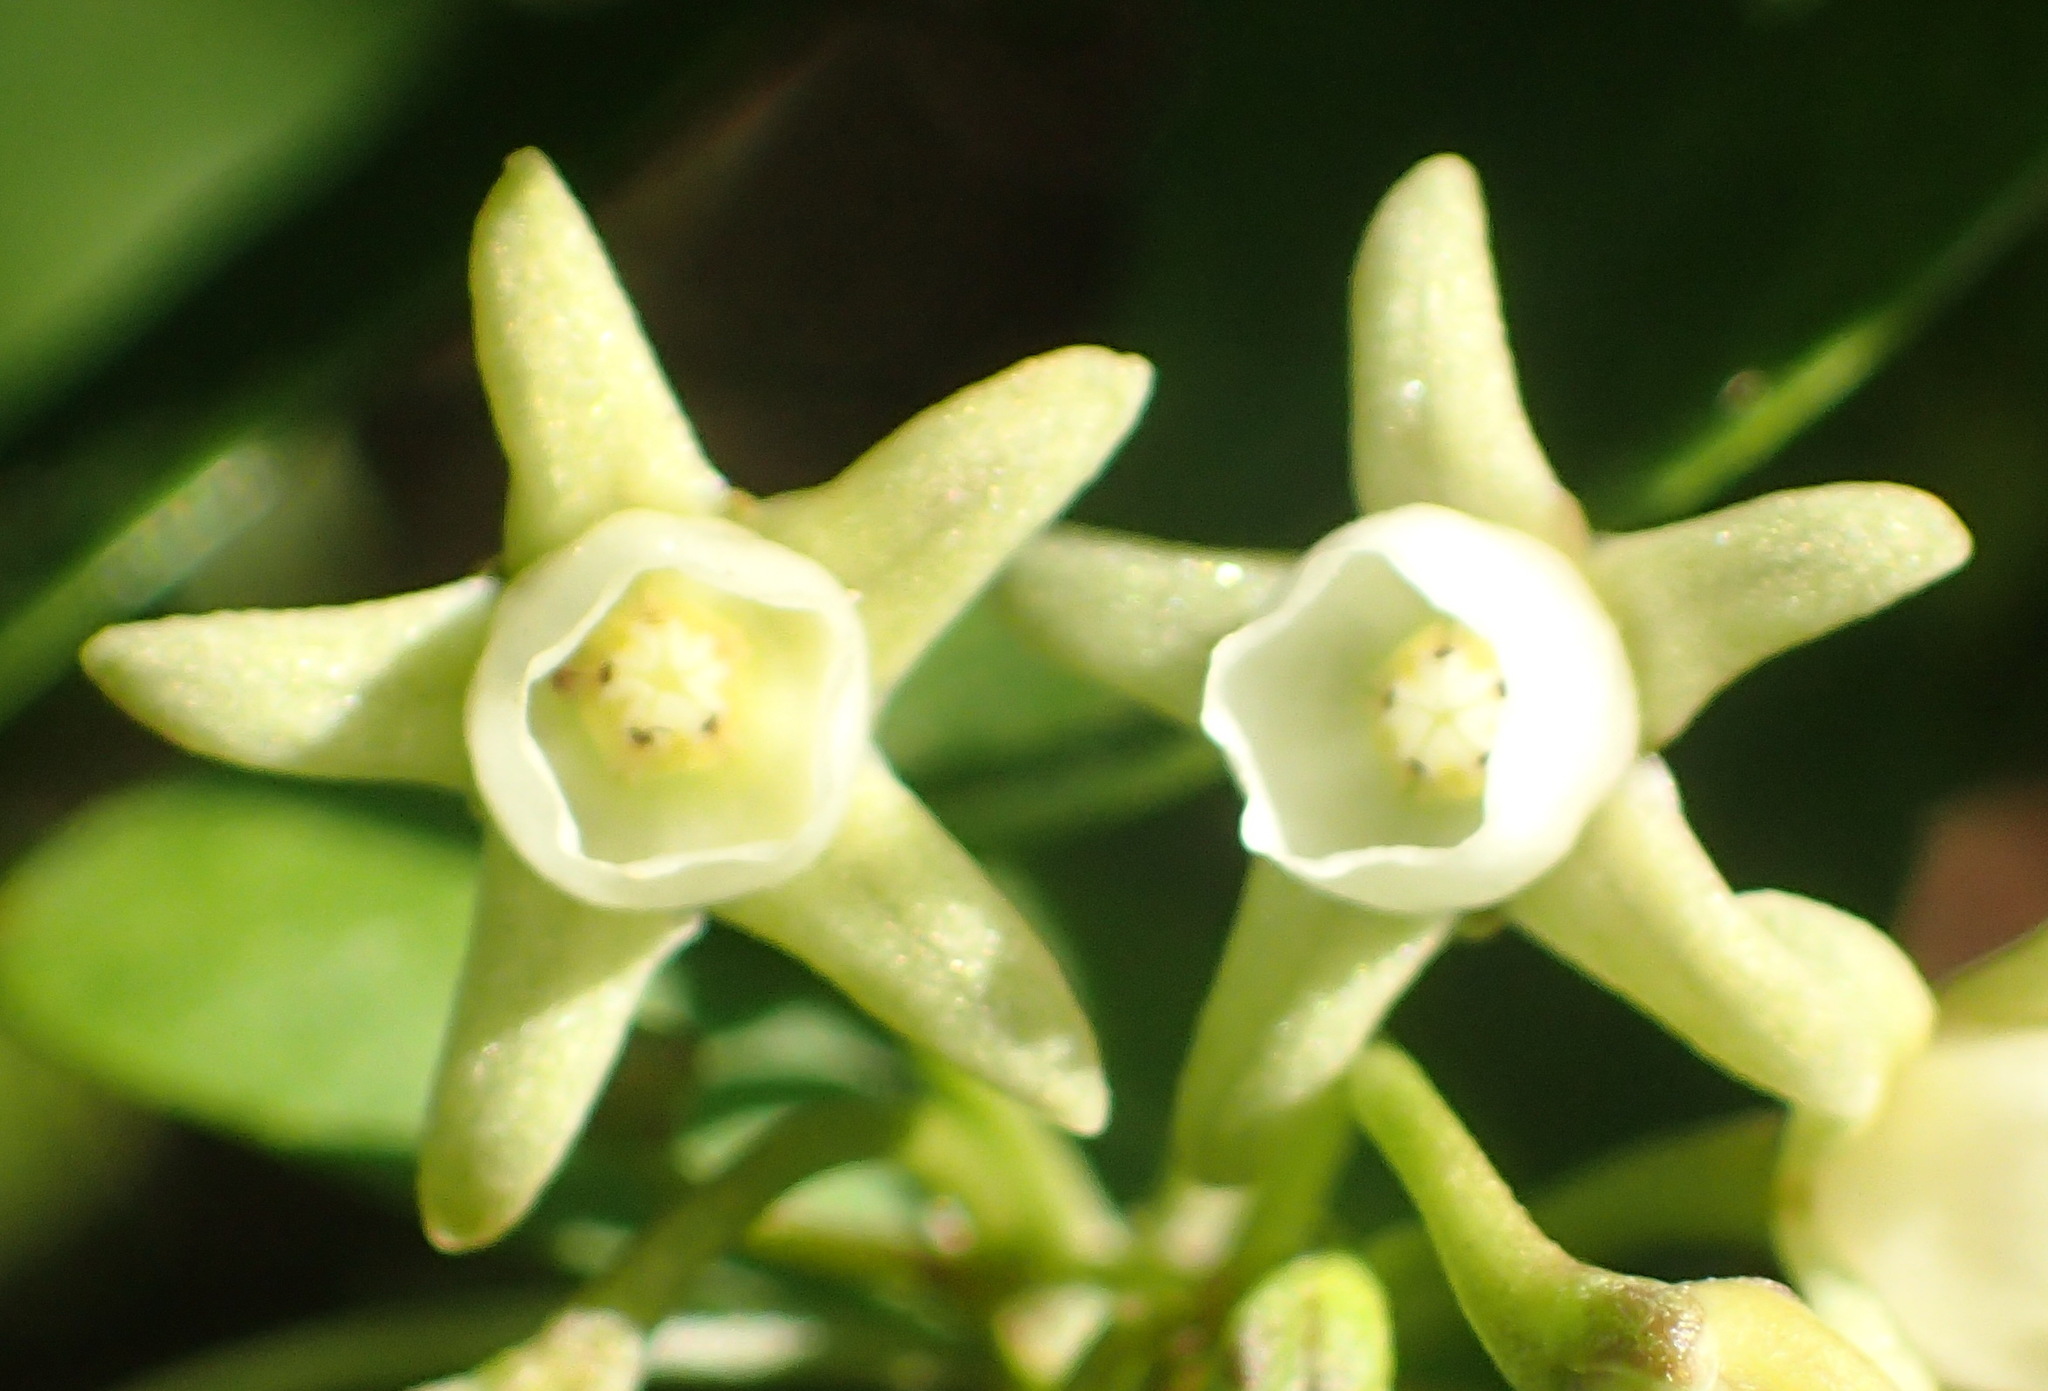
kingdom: Plantae
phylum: Tracheophyta
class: Magnoliopsida
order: Gentianales
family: Apocynaceae
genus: Cynanchum
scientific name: Cynanchum ellipticum
